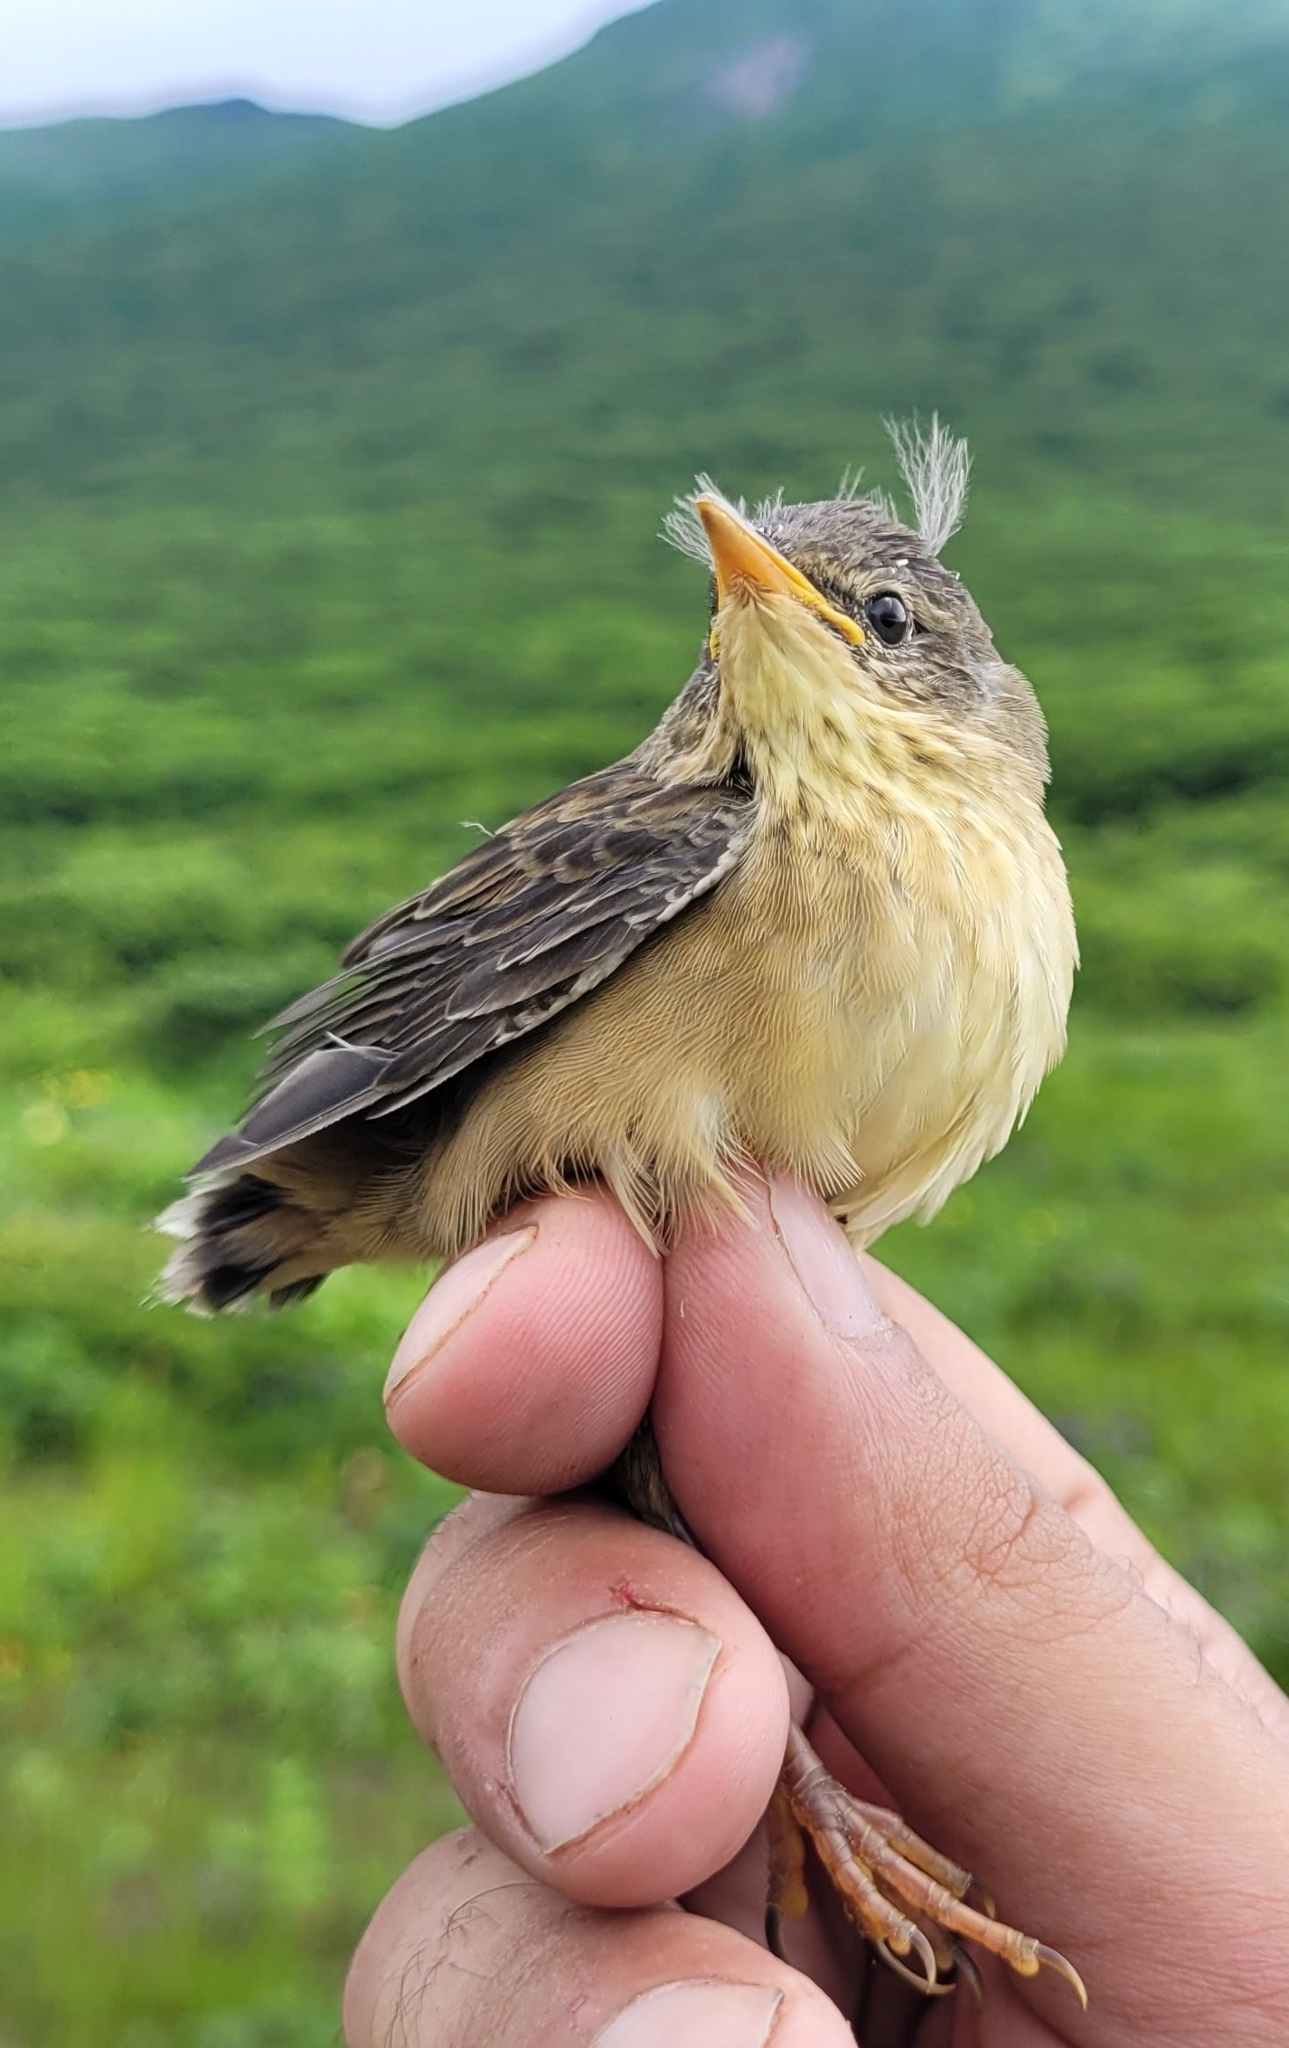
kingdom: Animalia
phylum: Chordata
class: Aves
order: Passeriformes
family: Locustellidae
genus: Locustella
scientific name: Locustella ochotensis
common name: Middendorff's grasshopper-warbler
